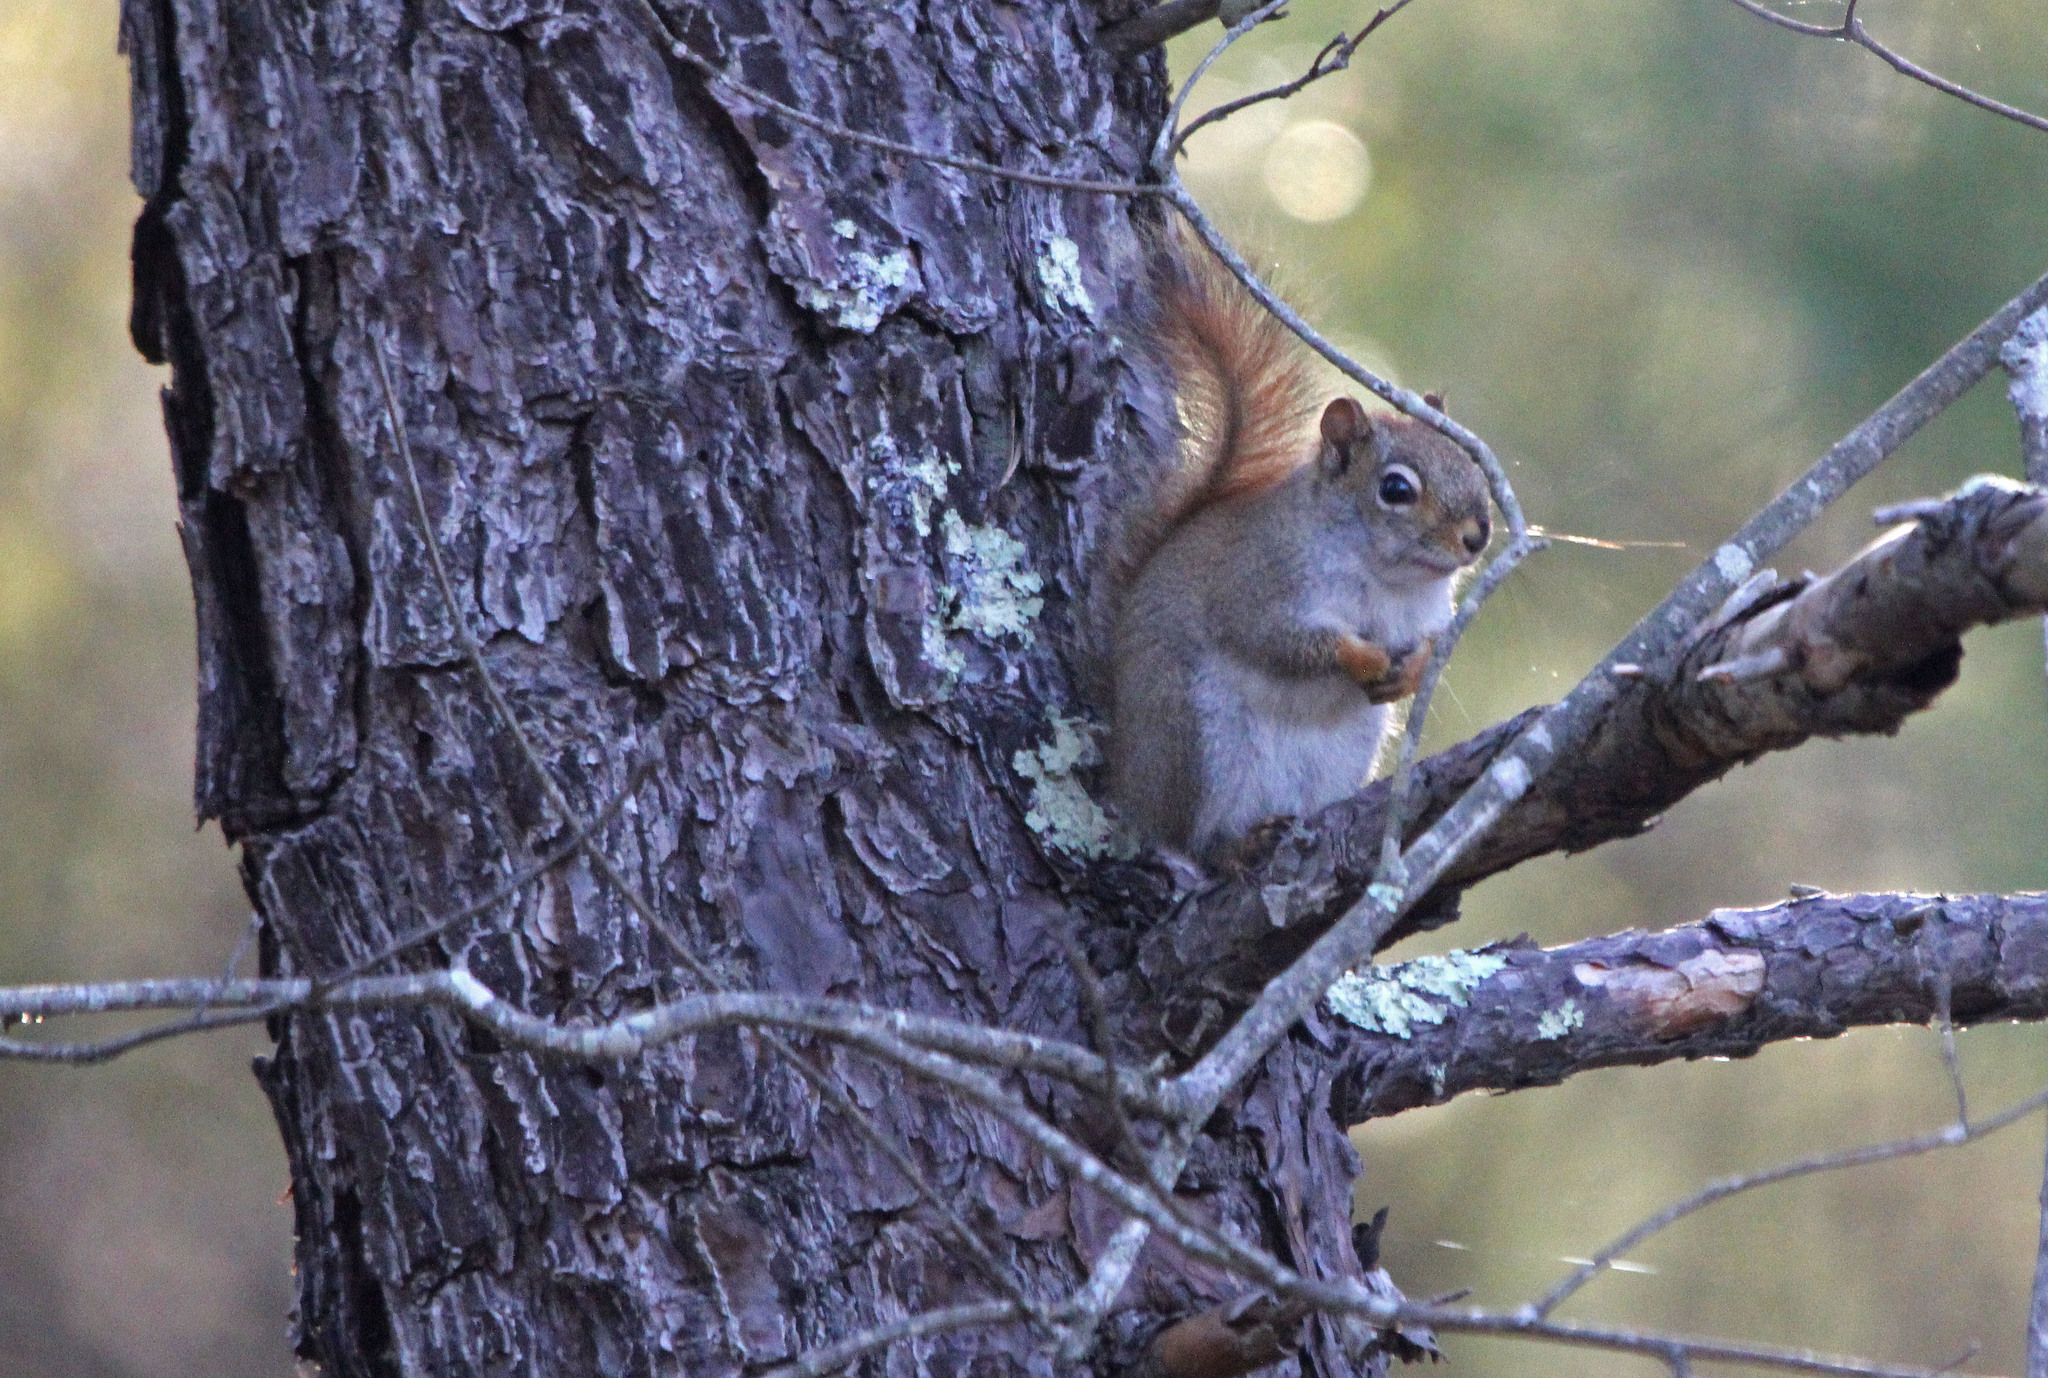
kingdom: Animalia
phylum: Chordata
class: Mammalia
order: Rodentia
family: Sciuridae
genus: Tamiasciurus
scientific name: Tamiasciurus hudsonicus
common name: Red squirrel
